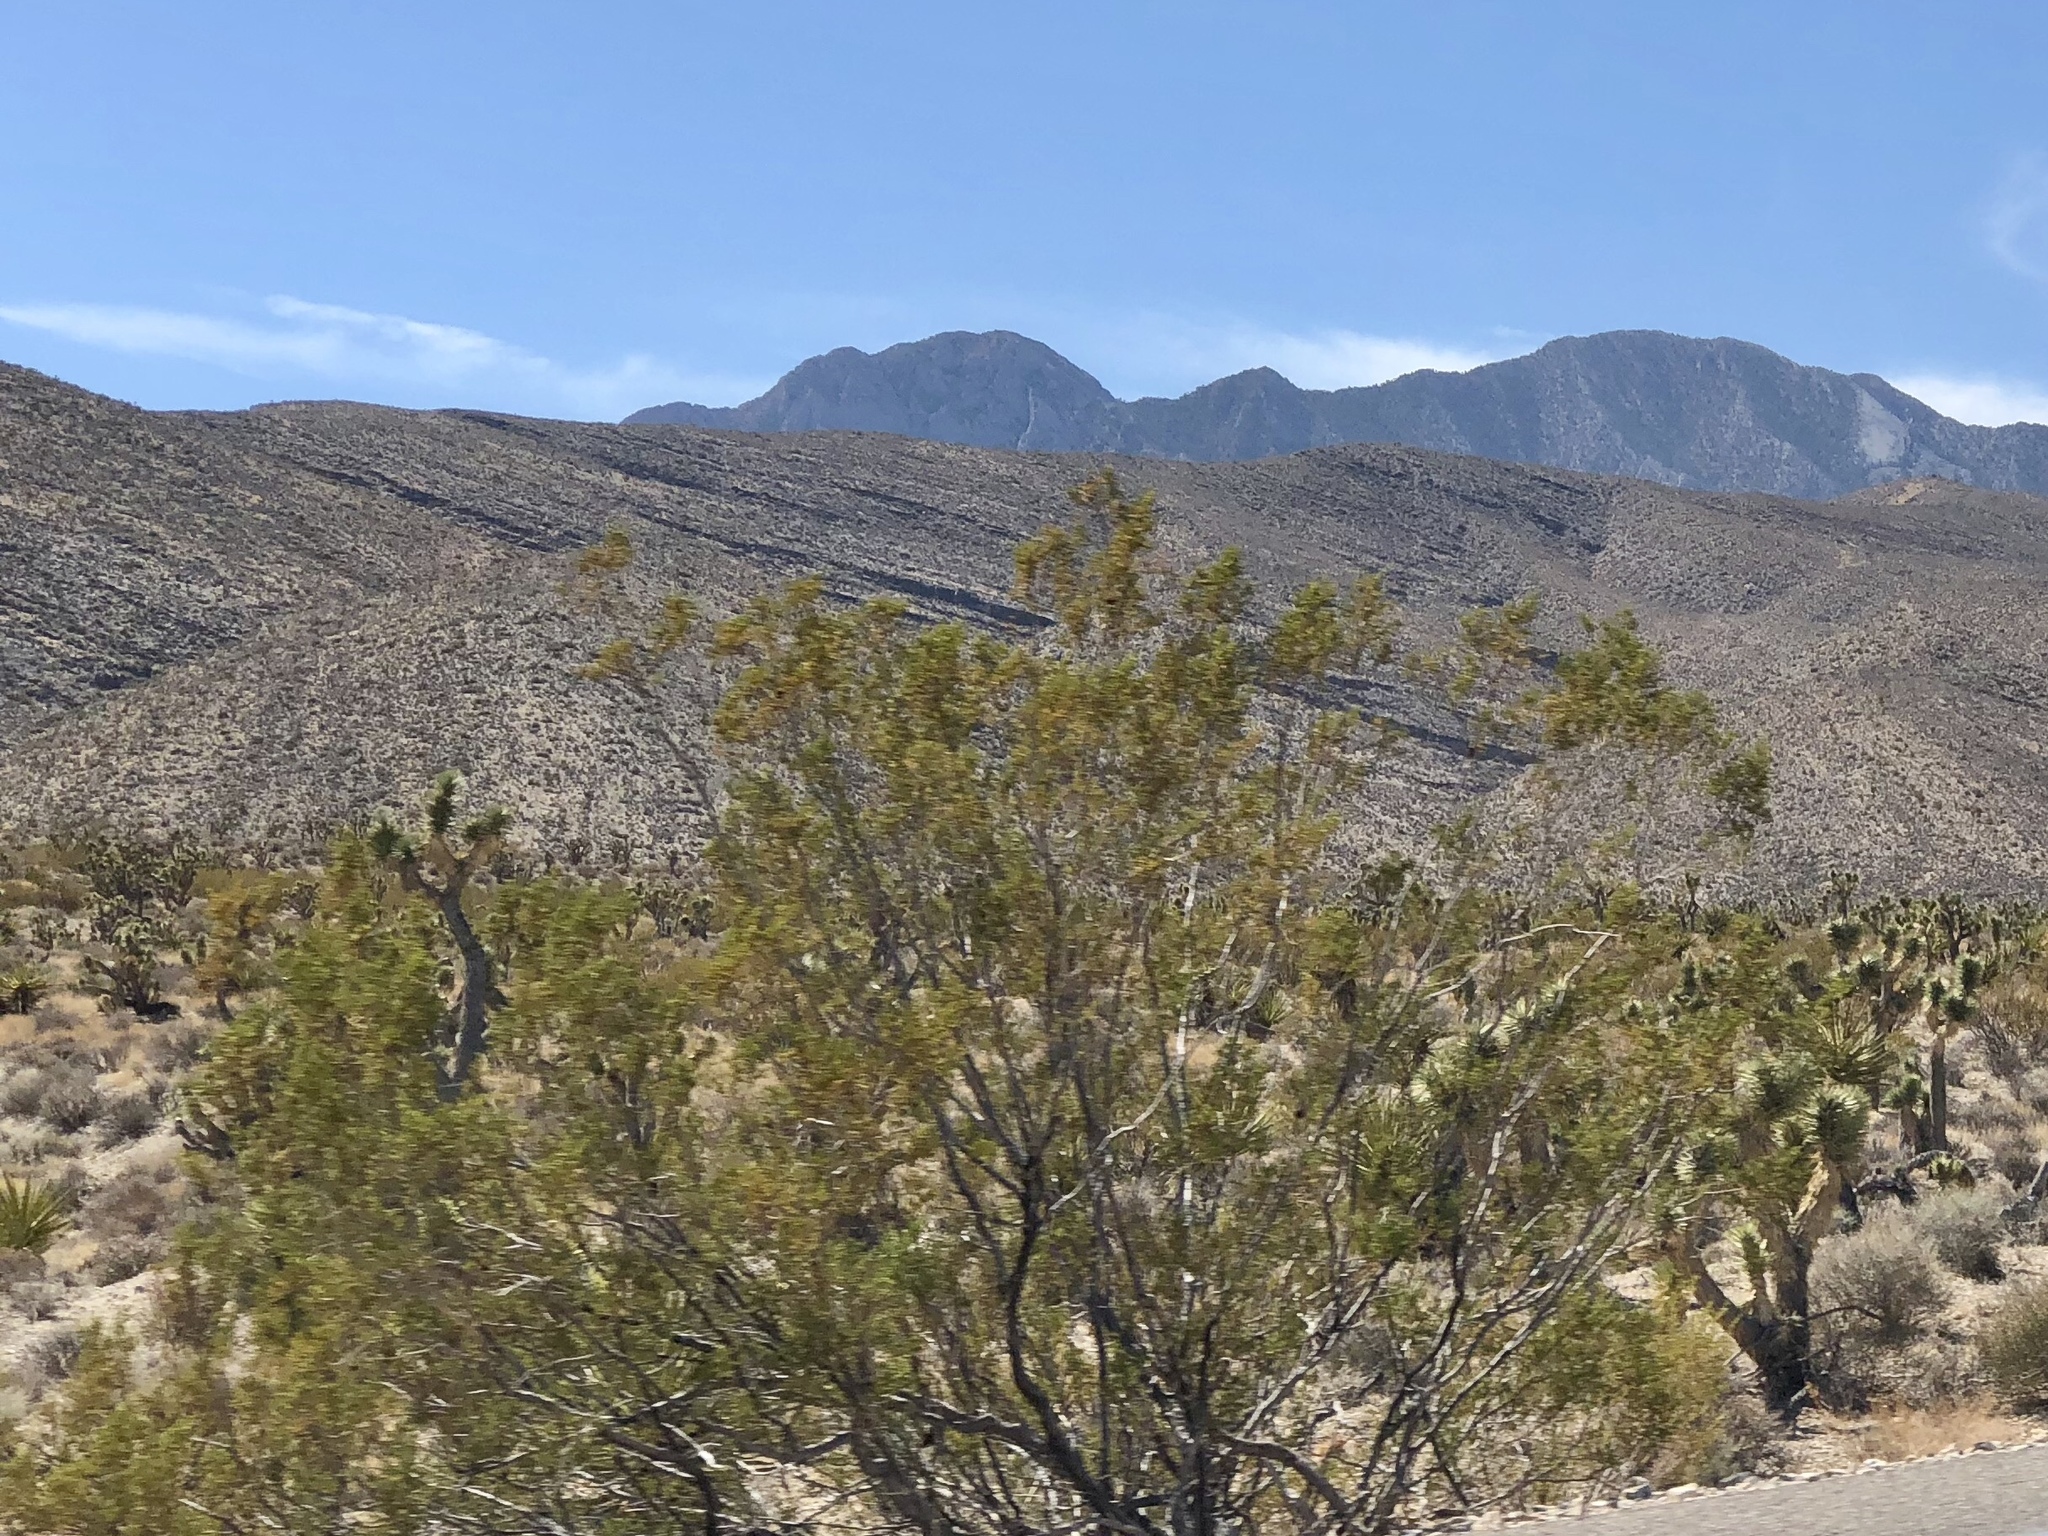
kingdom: Plantae
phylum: Tracheophyta
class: Magnoliopsida
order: Zygophyllales
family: Zygophyllaceae
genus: Larrea
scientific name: Larrea tridentata
